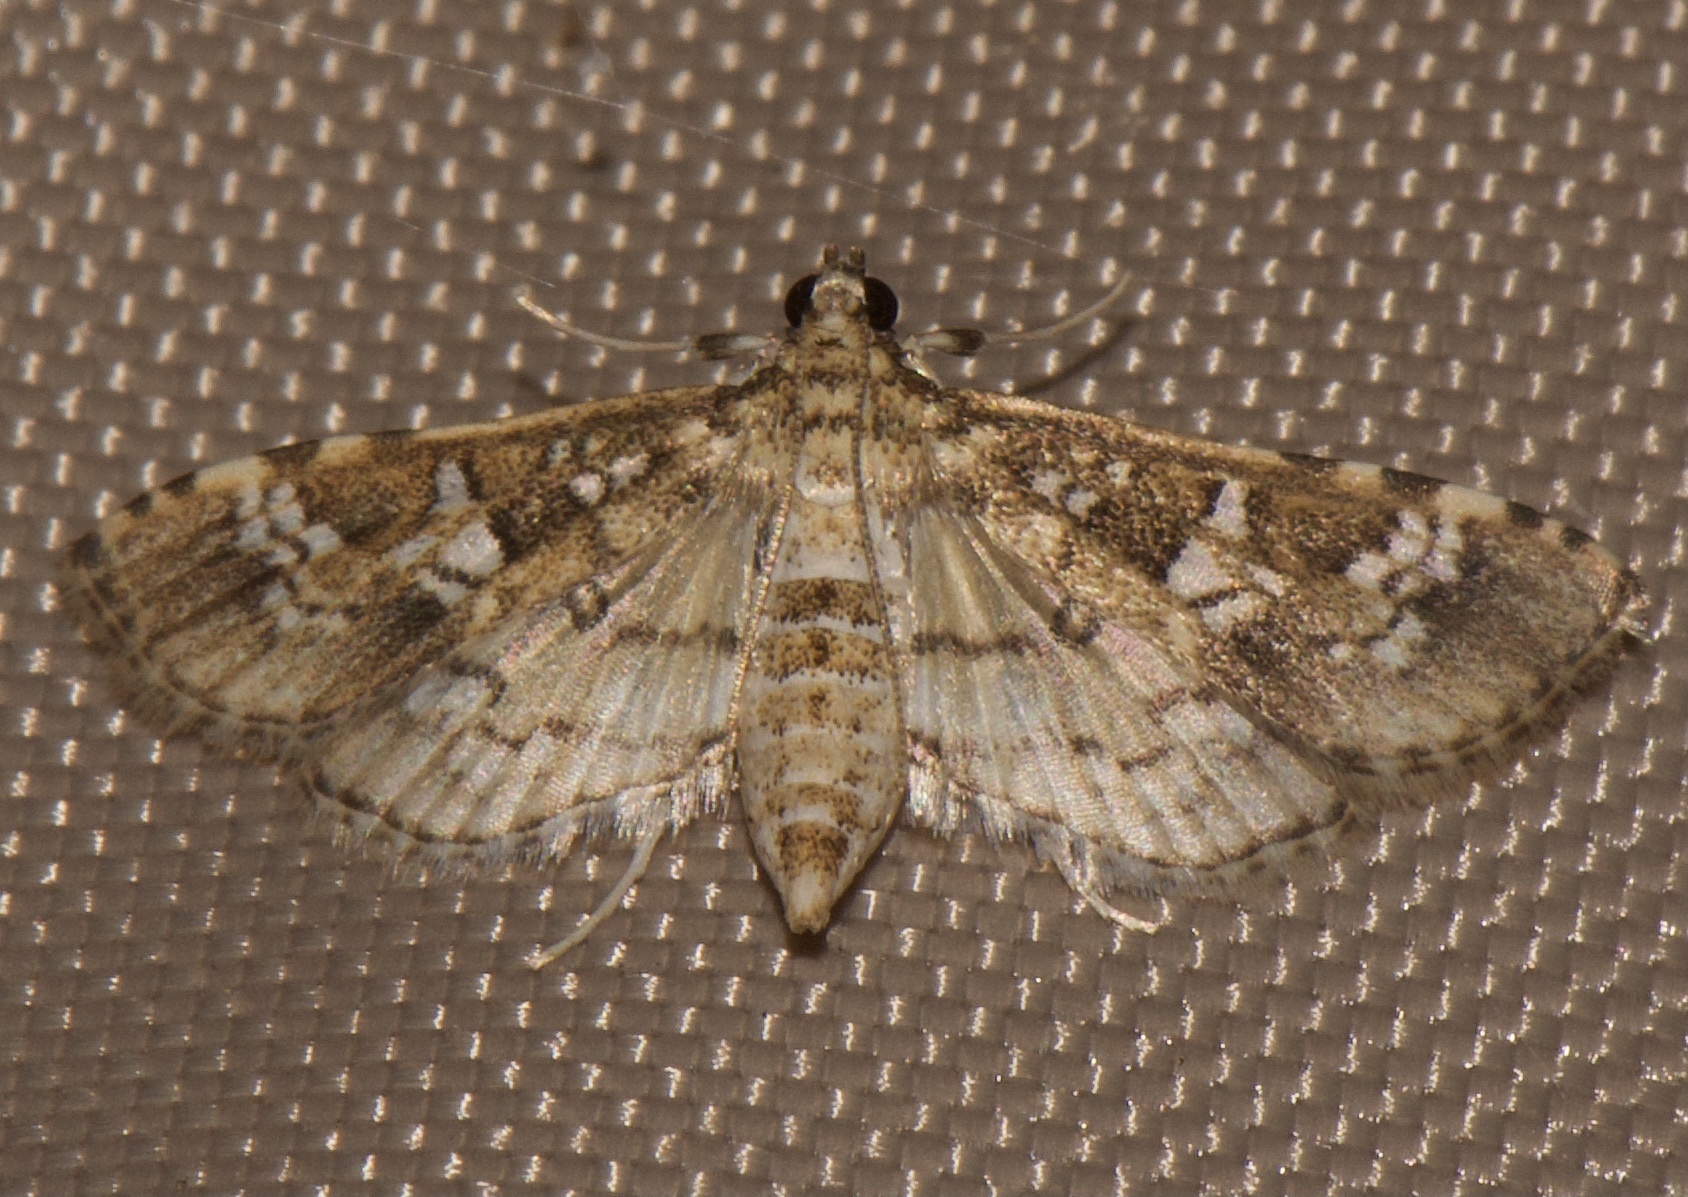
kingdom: Animalia
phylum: Arthropoda
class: Insecta
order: Lepidoptera
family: Crambidae
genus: Samea
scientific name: Samea multiplicalis
